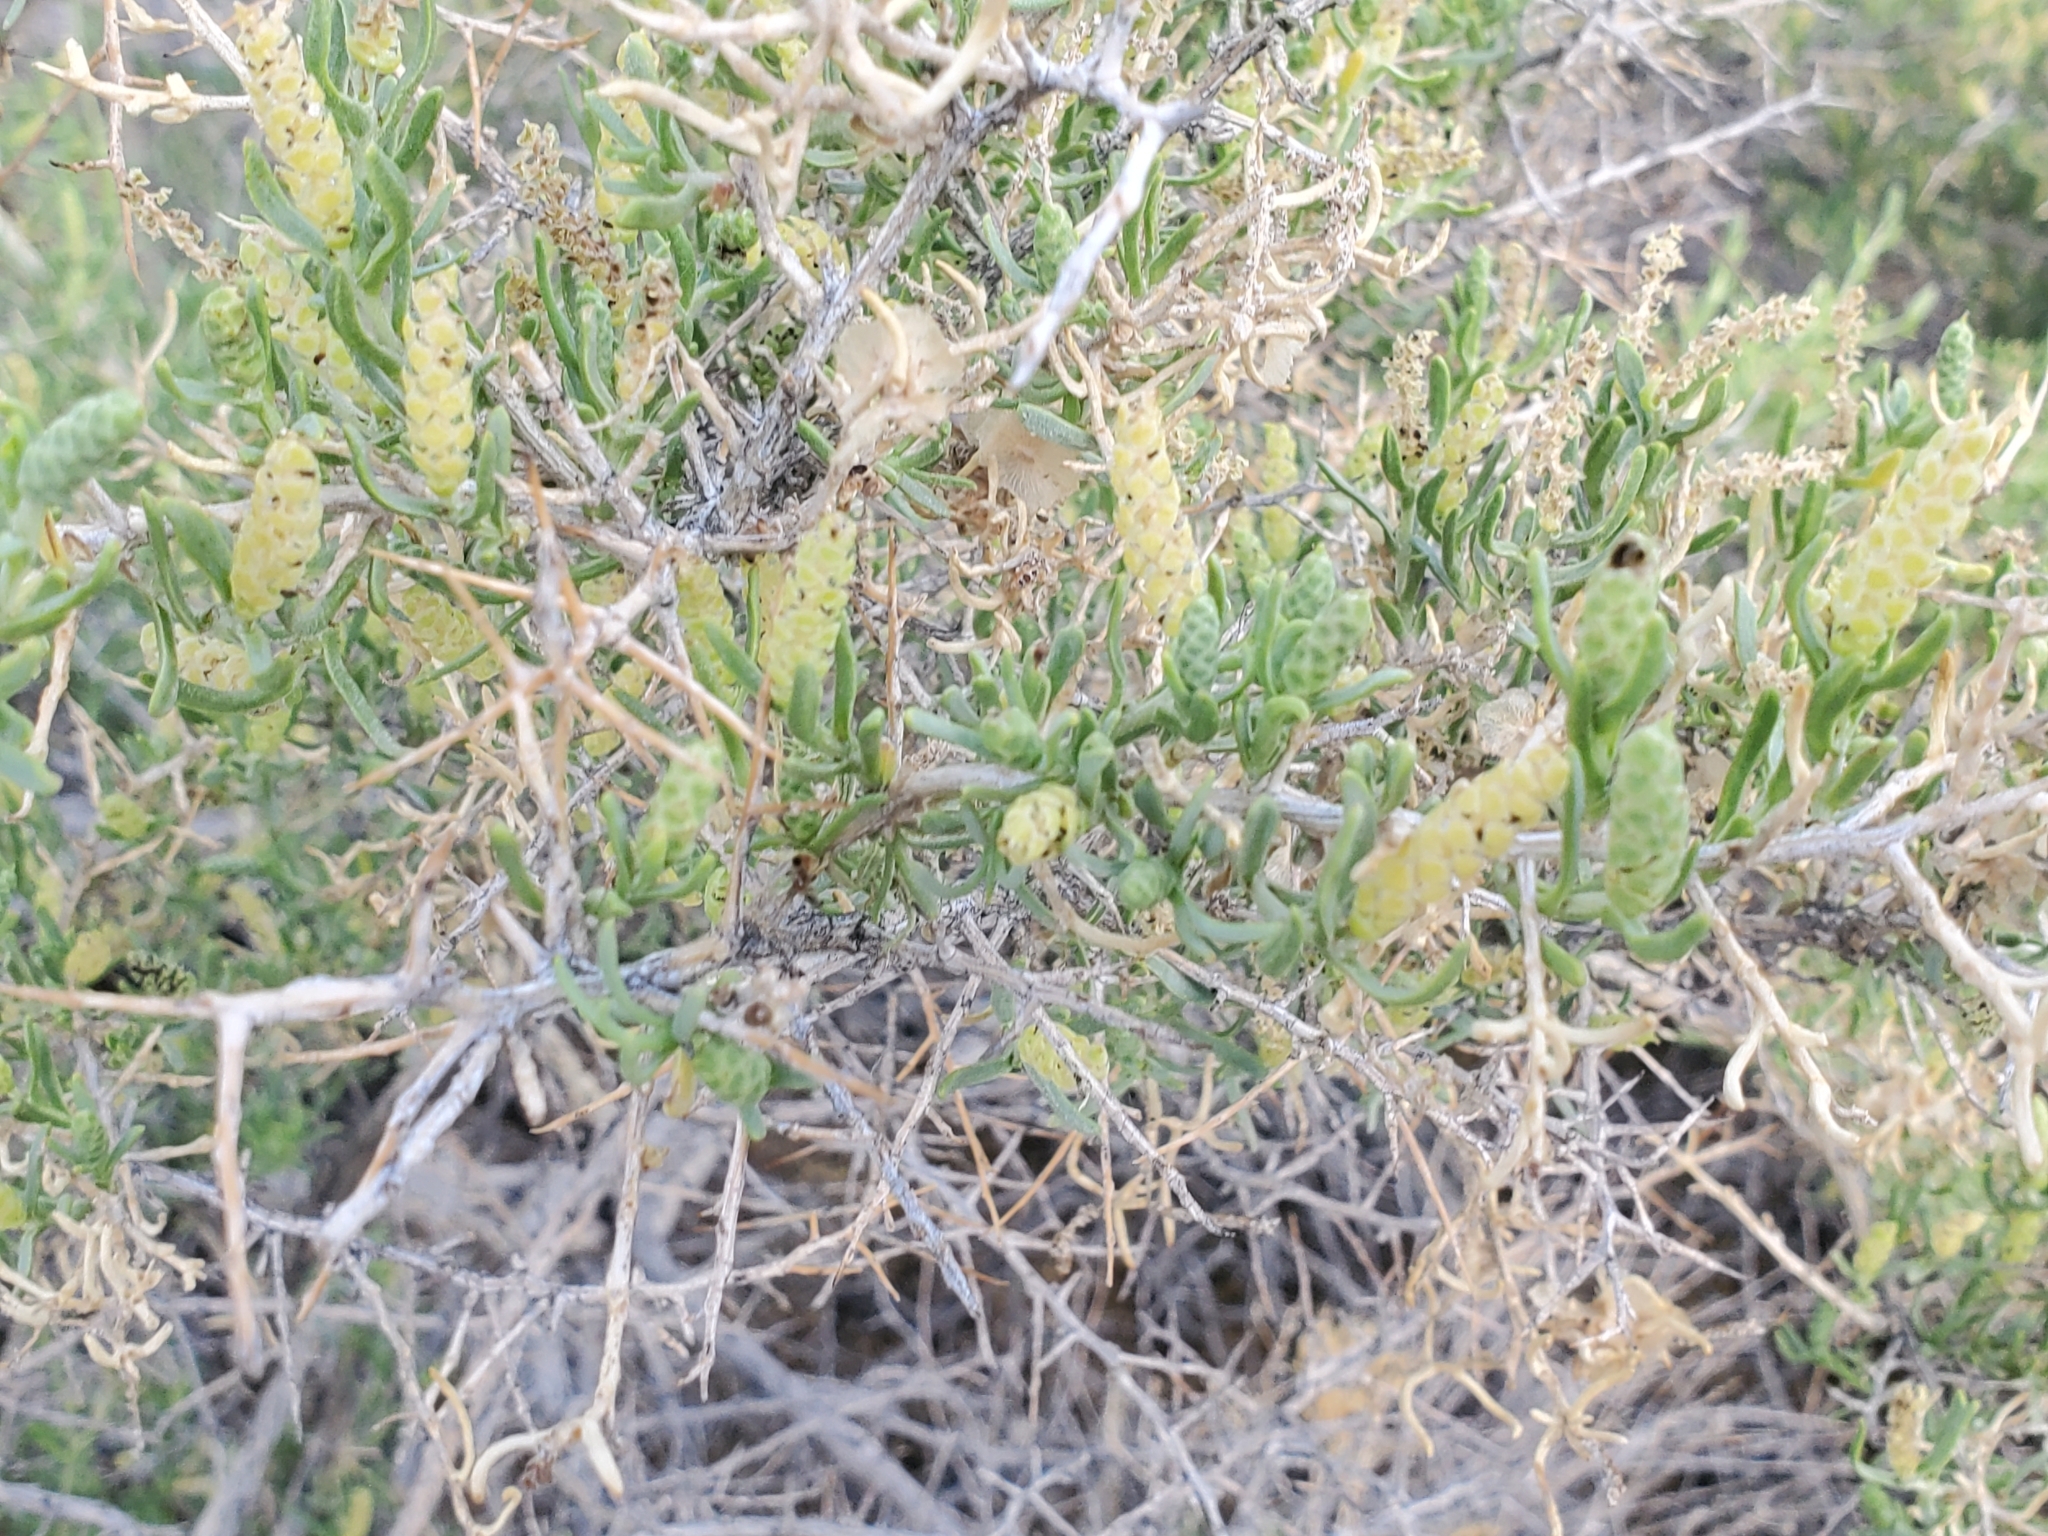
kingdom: Plantae
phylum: Tracheophyta
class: Magnoliopsida
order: Caryophyllales
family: Sarcobataceae
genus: Sarcobatus
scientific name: Sarcobatus vermiculatus
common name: Greasewood
